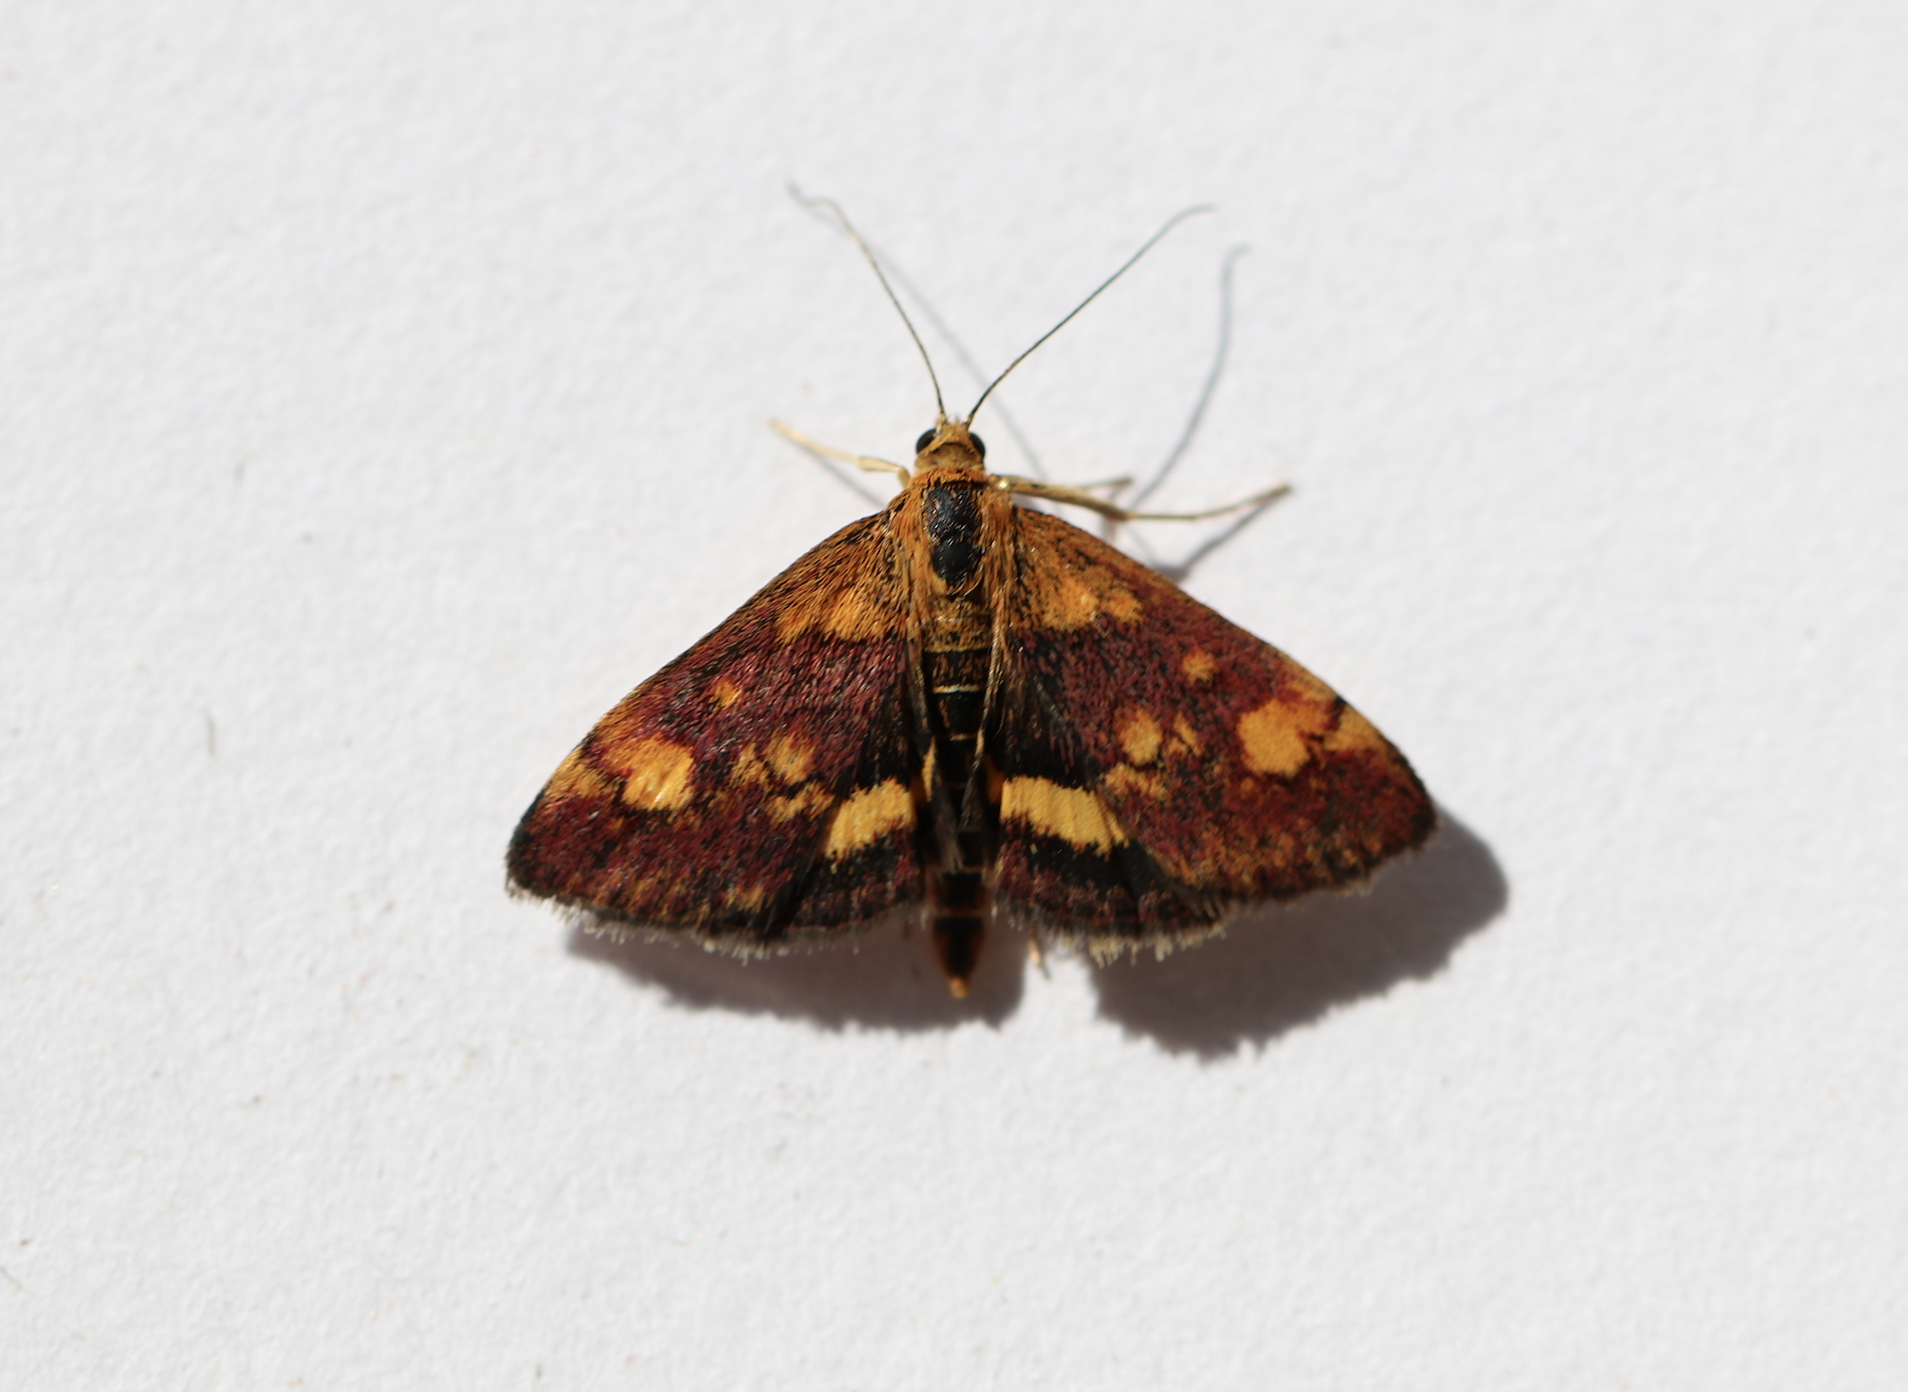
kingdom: Animalia
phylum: Arthropoda
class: Insecta
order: Lepidoptera
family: Crambidae
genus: Pyrausta
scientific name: Pyrausta aurata
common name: Small purple & gold
